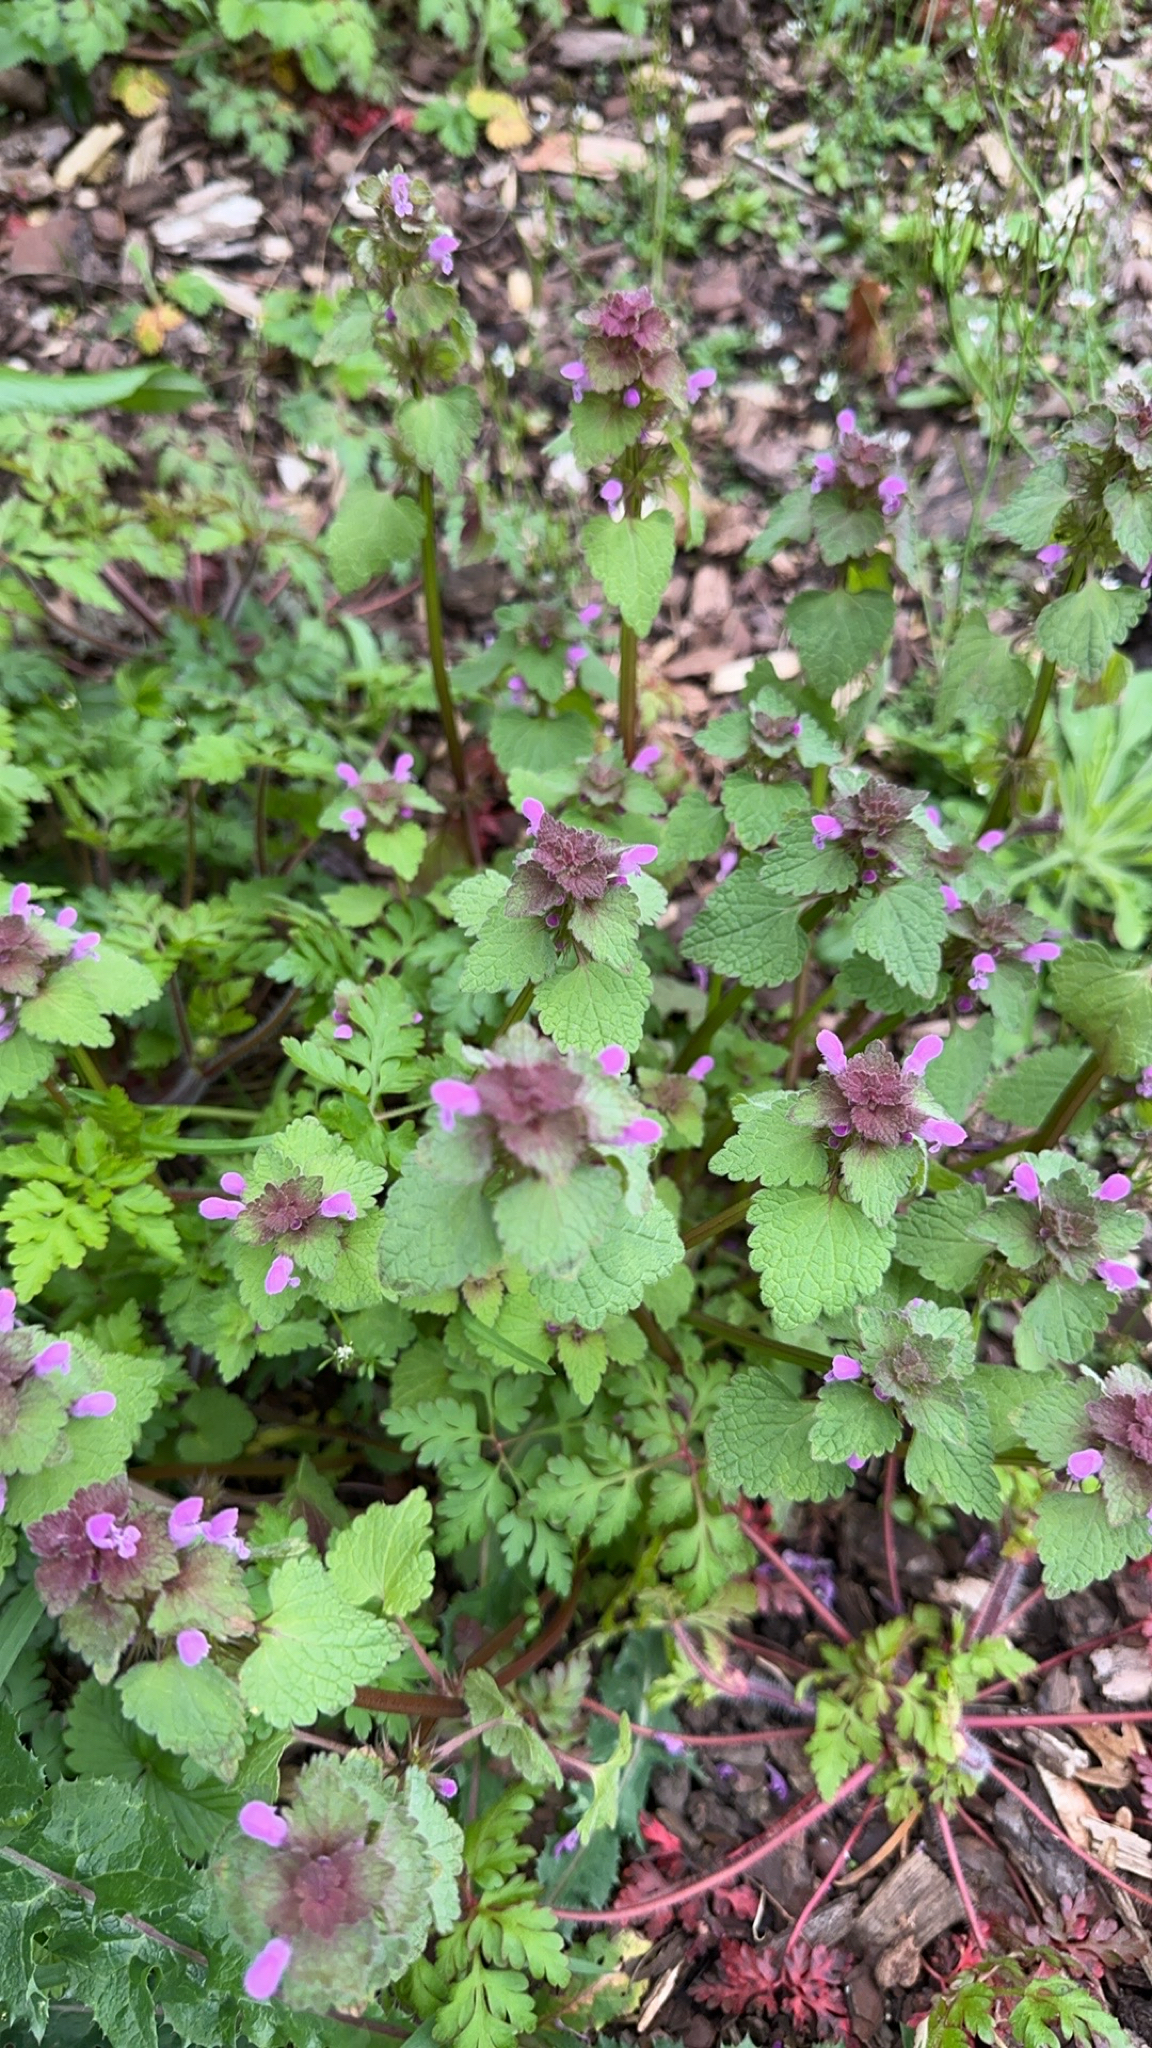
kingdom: Plantae
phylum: Tracheophyta
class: Magnoliopsida
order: Lamiales
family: Lamiaceae
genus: Lamium
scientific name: Lamium purpureum
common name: Red dead-nettle
